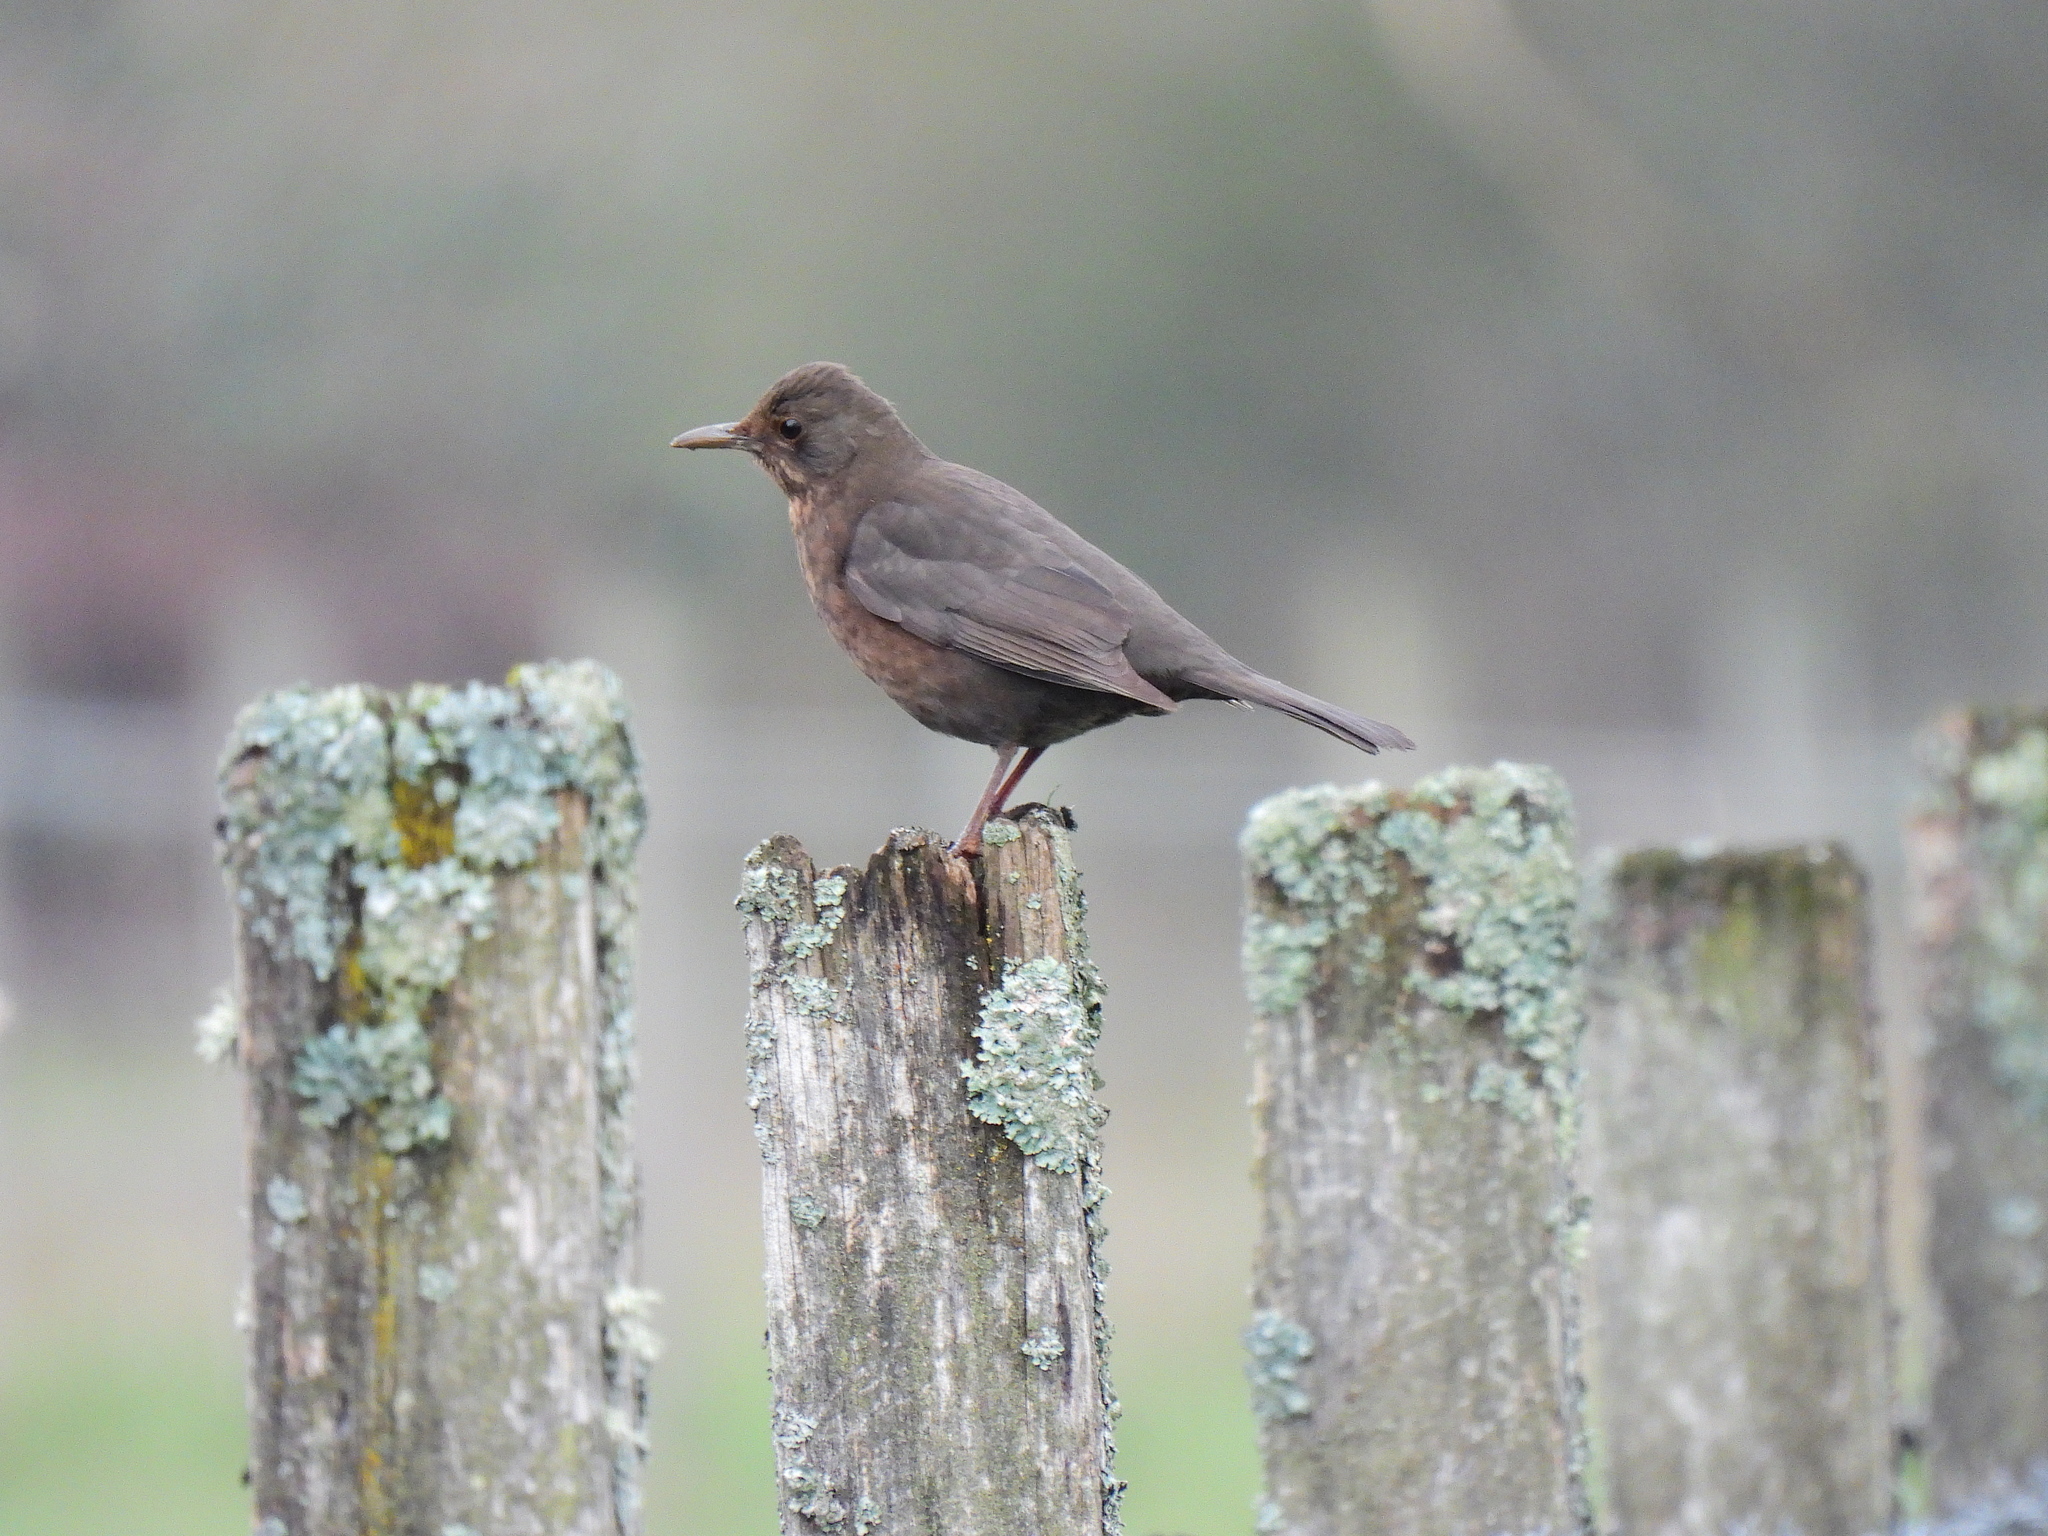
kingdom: Animalia
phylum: Chordata
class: Aves
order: Passeriformes
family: Turdidae
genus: Turdus
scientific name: Turdus merula
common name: Common blackbird
